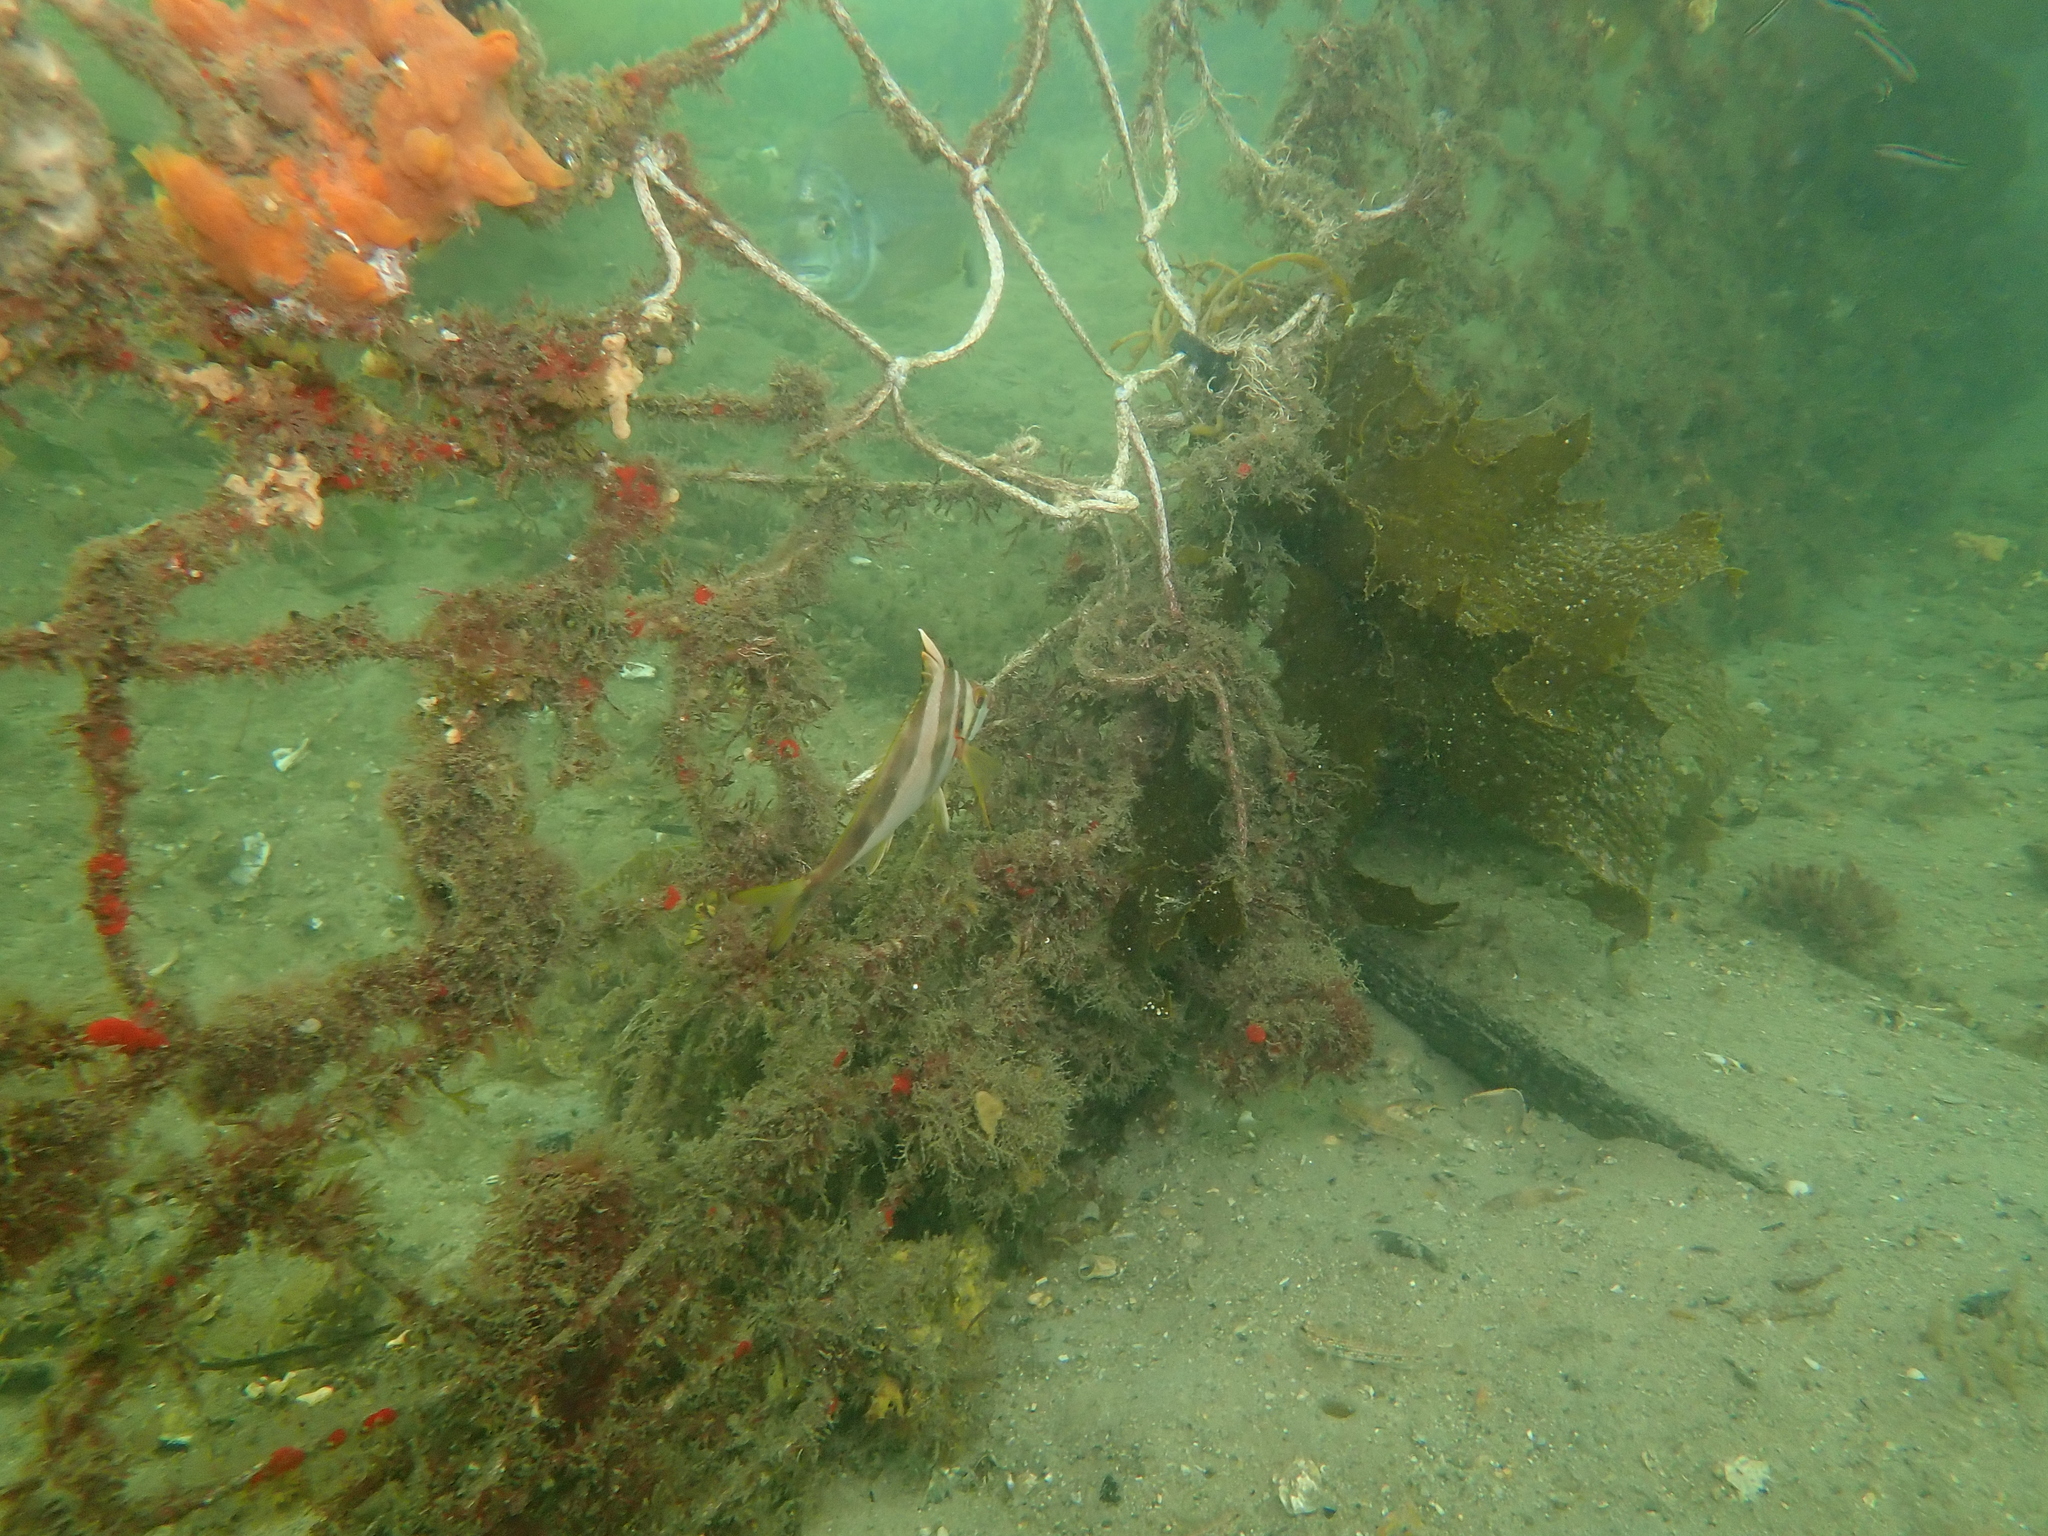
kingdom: Animalia
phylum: Chordata
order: Perciformes
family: Cheilodactylidae
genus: Cheilodactylus
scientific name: Cheilodactylus vestitus
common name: Crested morwong
